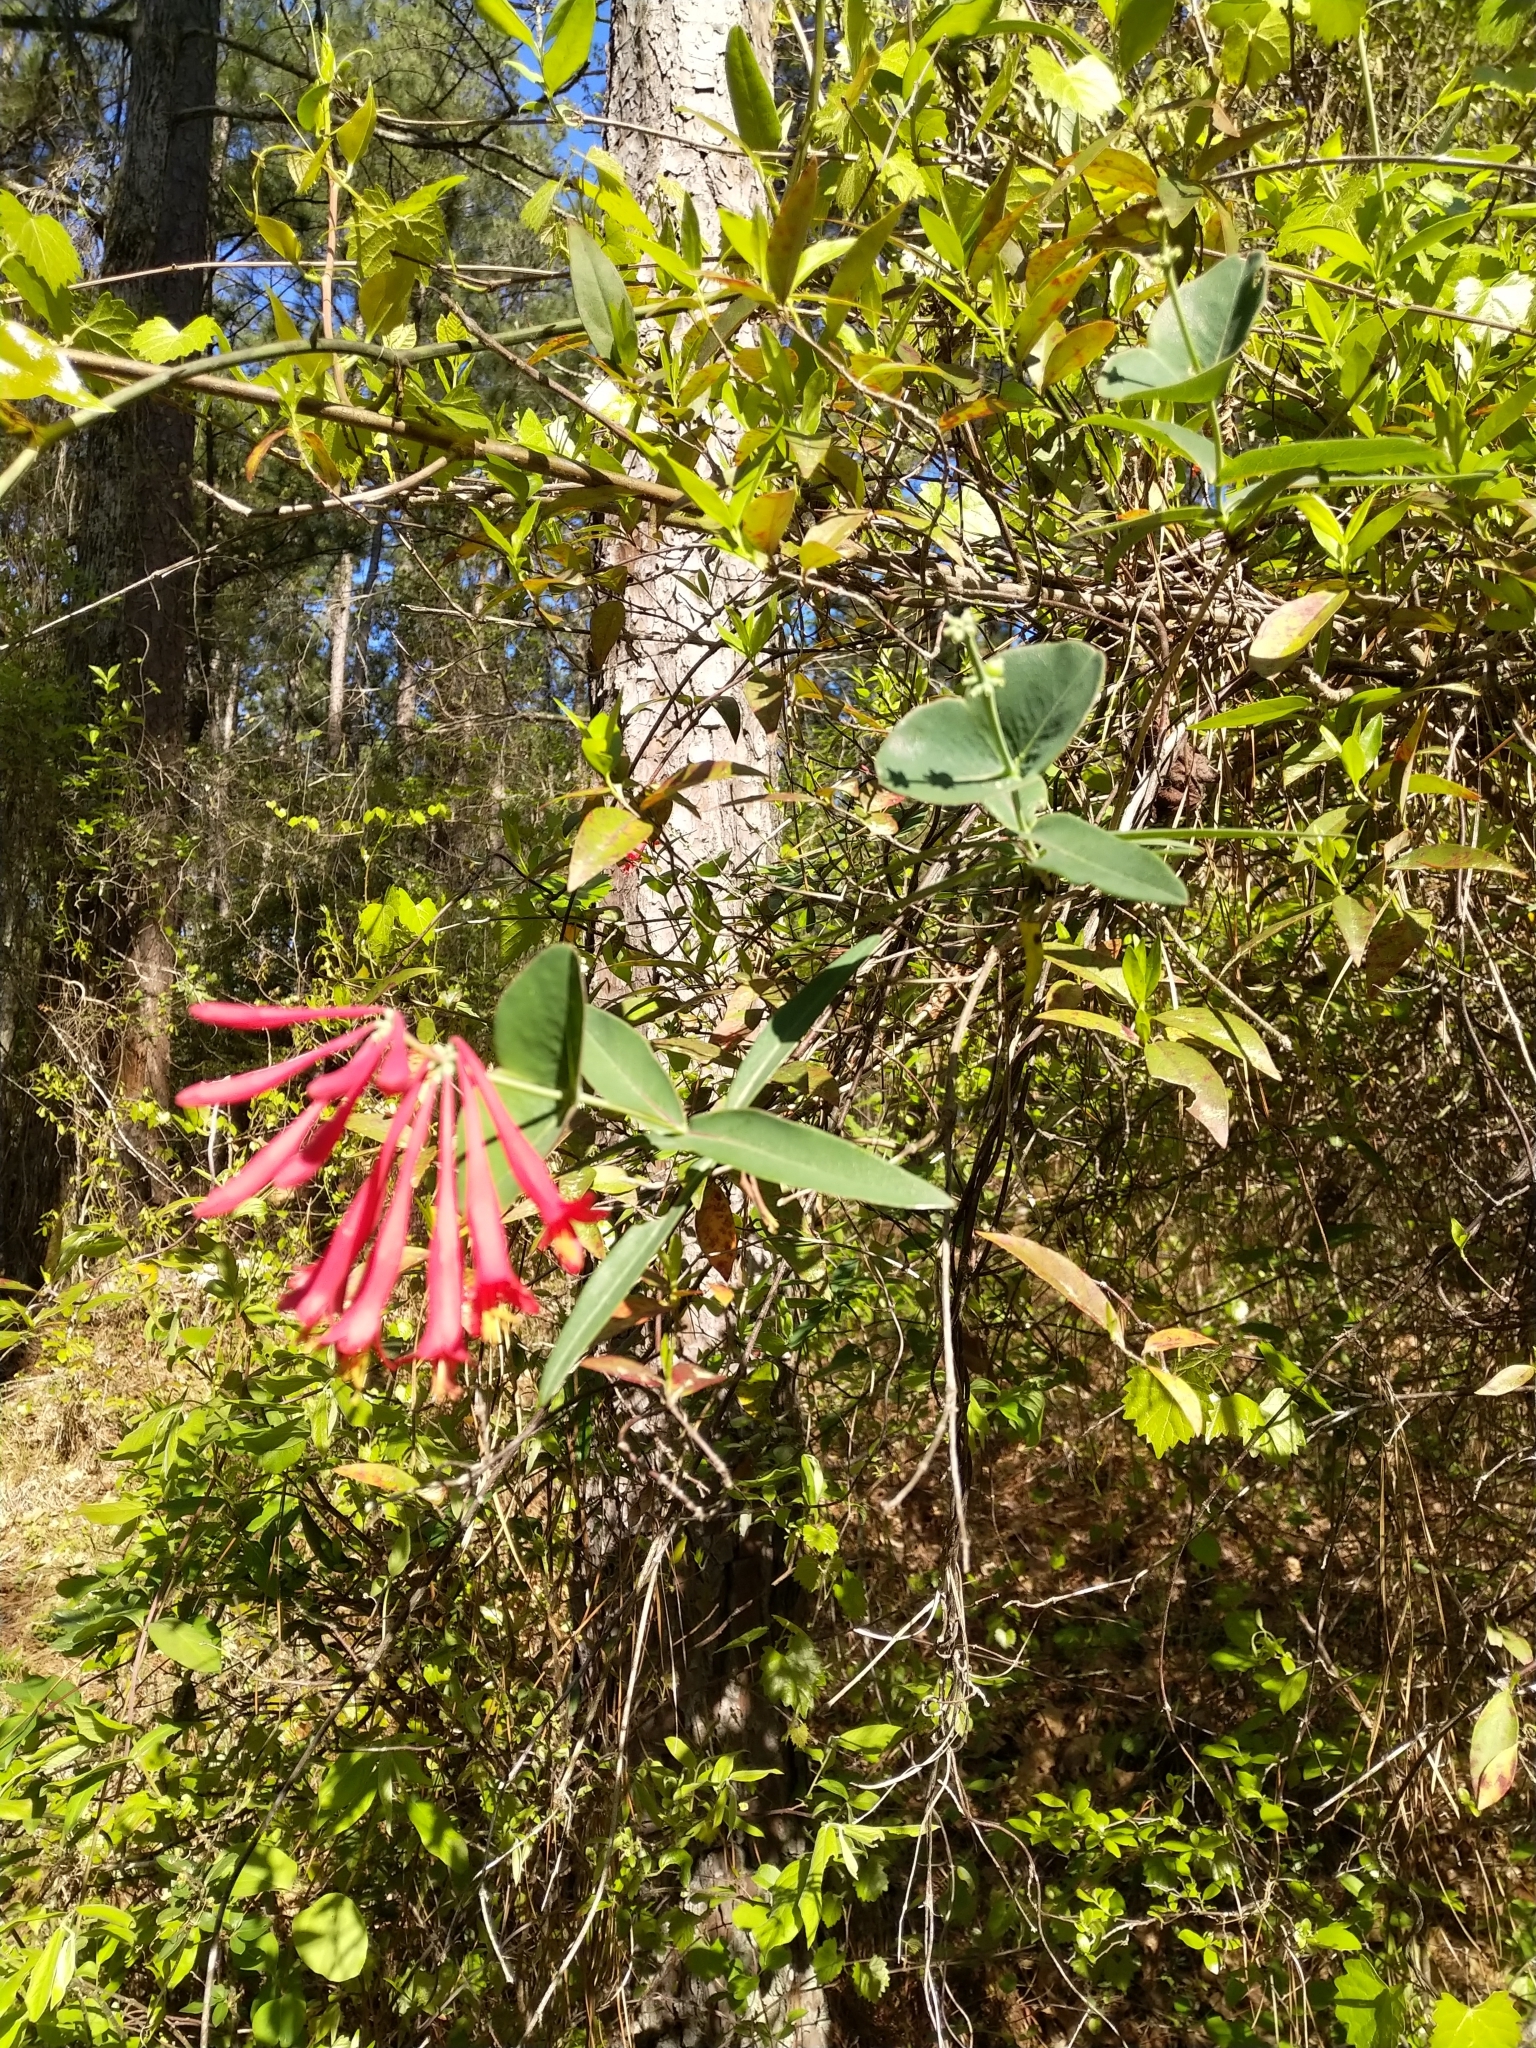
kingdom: Plantae
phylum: Tracheophyta
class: Magnoliopsida
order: Dipsacales
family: Caprifoliaceae
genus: Lonicera
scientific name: Lonicera sempervirens
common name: Coral honeysuckle
